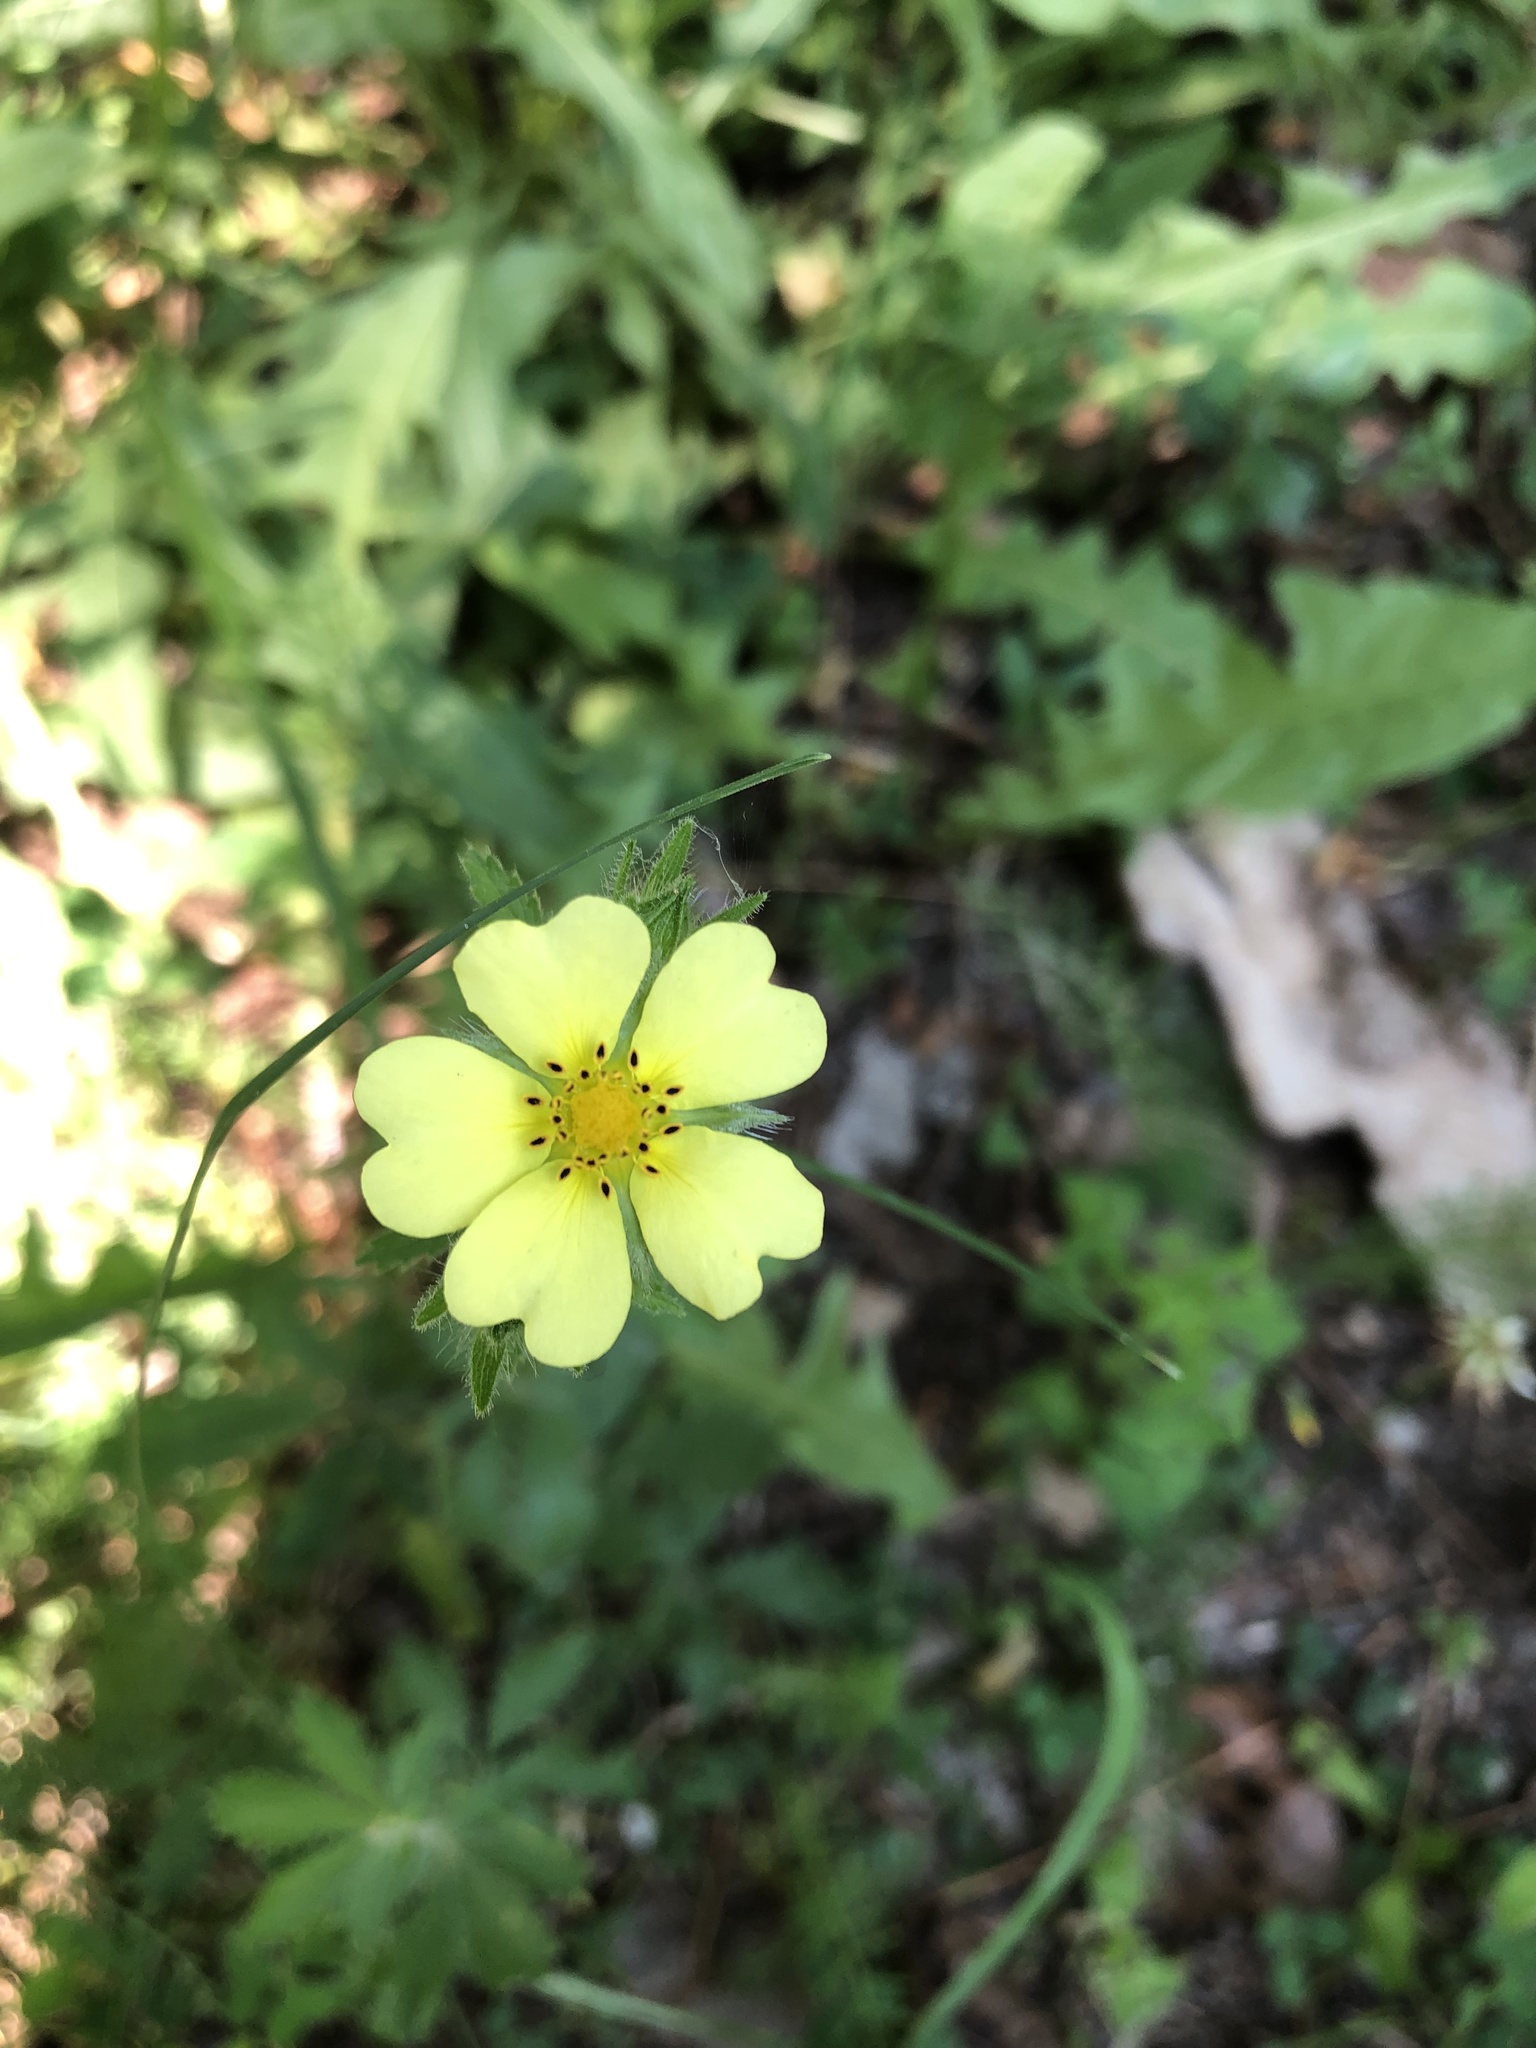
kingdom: Plantae
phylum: Tracheophyta
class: Magnoliopsida
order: Rosales
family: Rosaceae
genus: Potentilla
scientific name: Potentilla recta
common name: Sulphur cinquefoil
